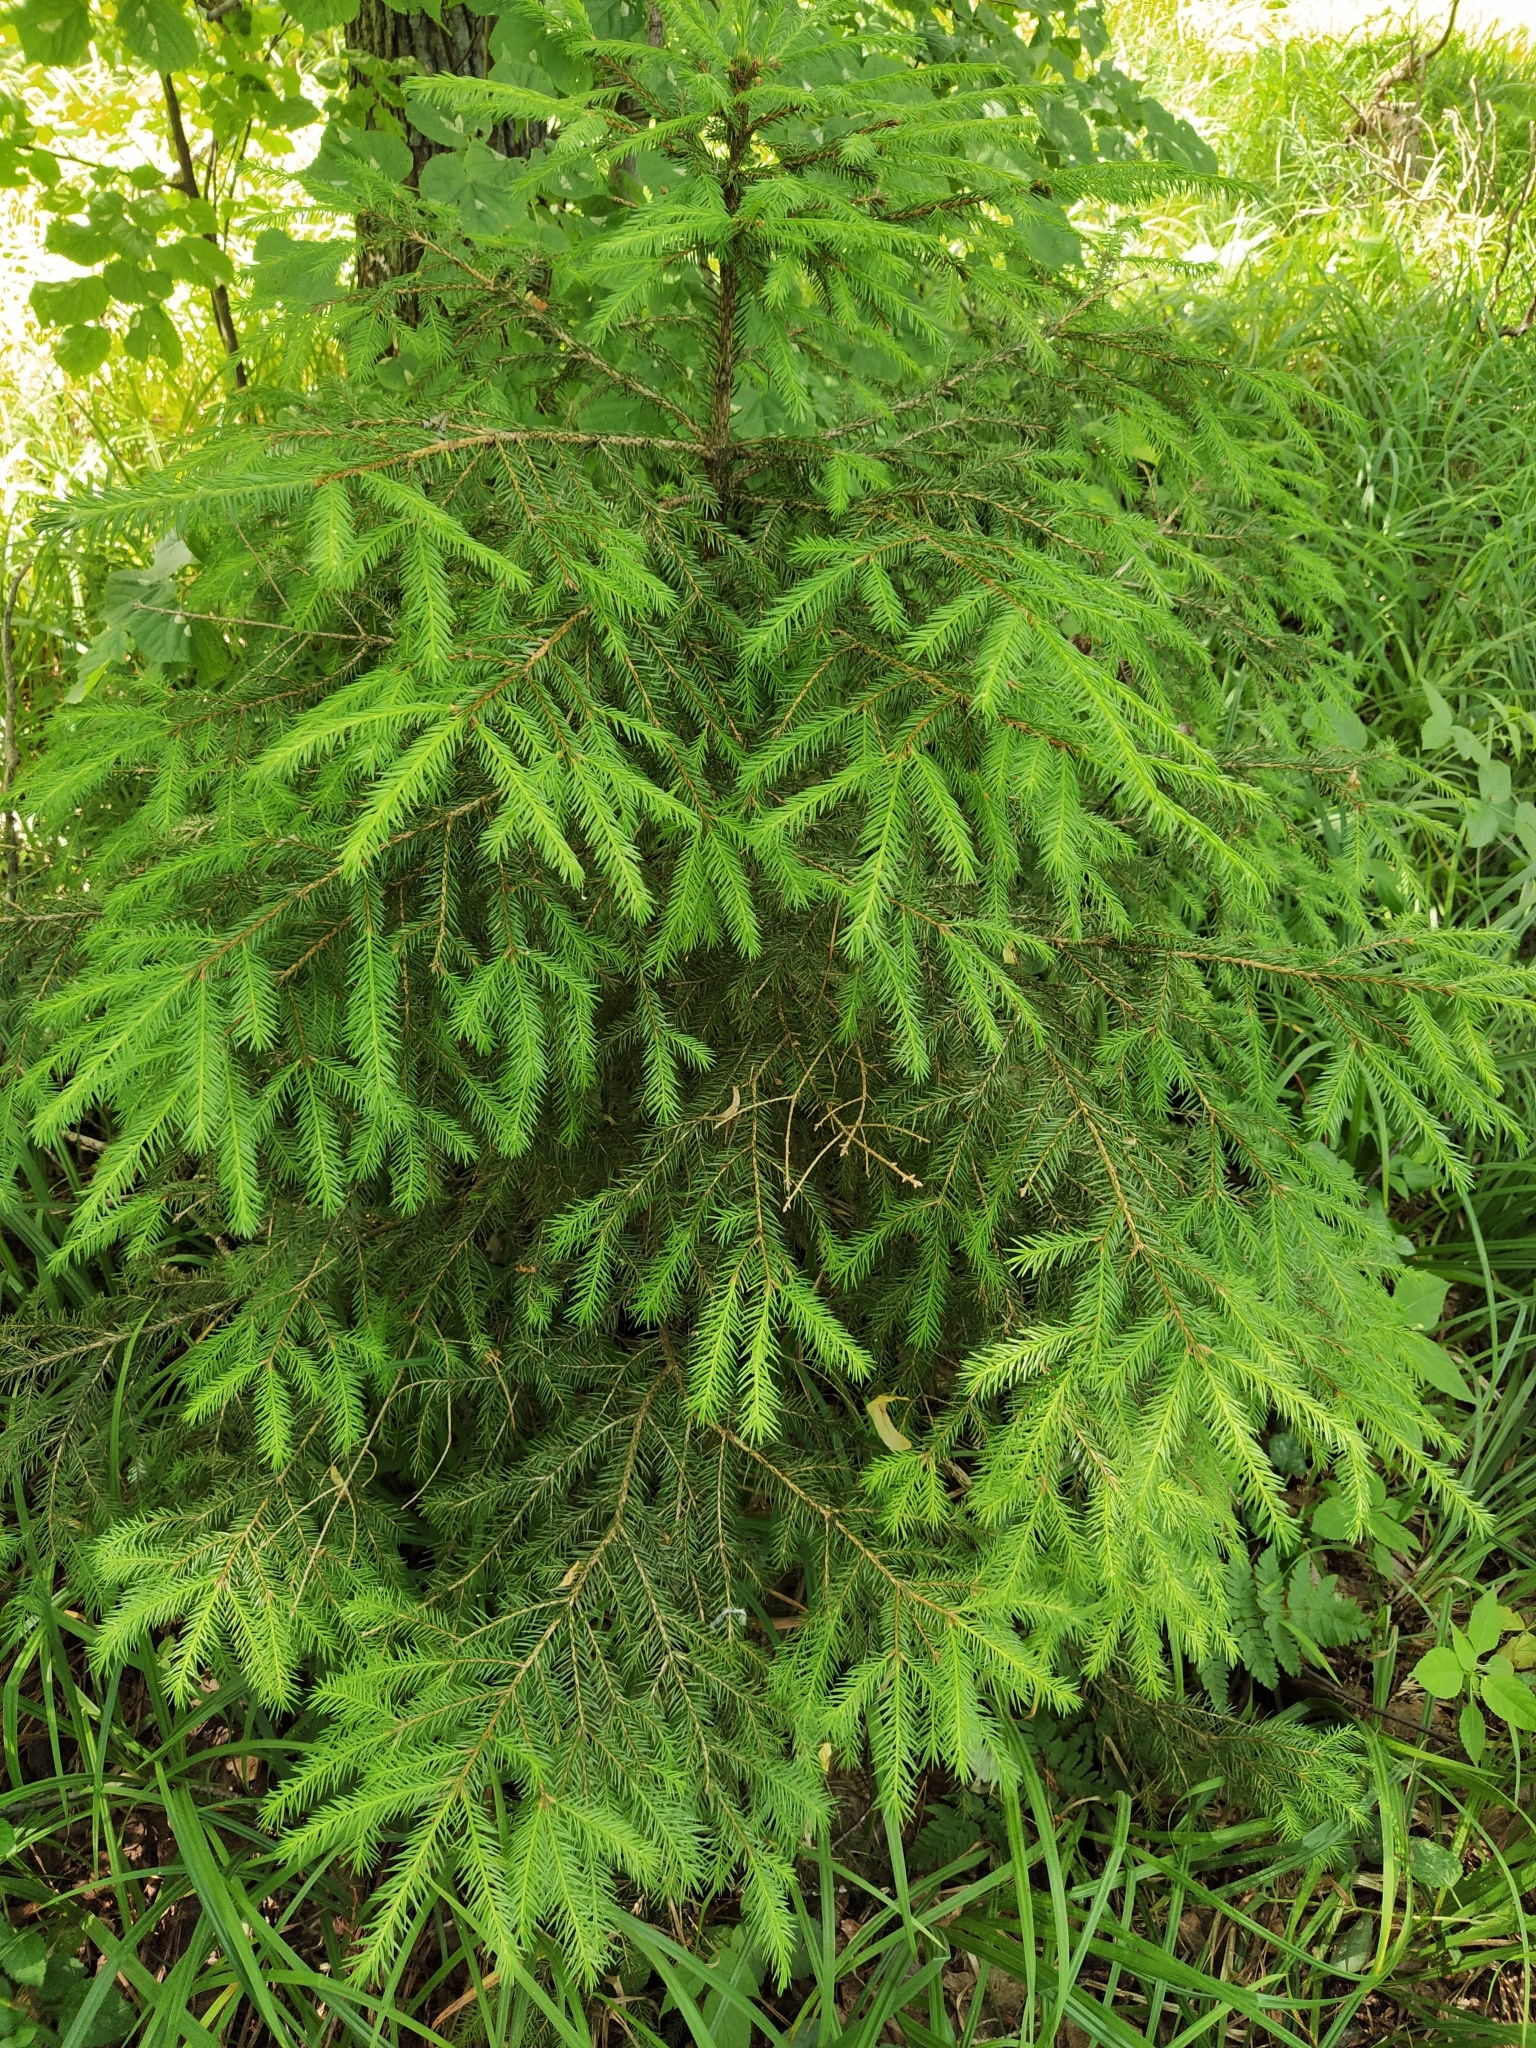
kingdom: Plantae
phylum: Tracheophyta
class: Pinopsida
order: Pinales
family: Pinaceae
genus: Picea
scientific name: Picea abies
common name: Norway spruce
